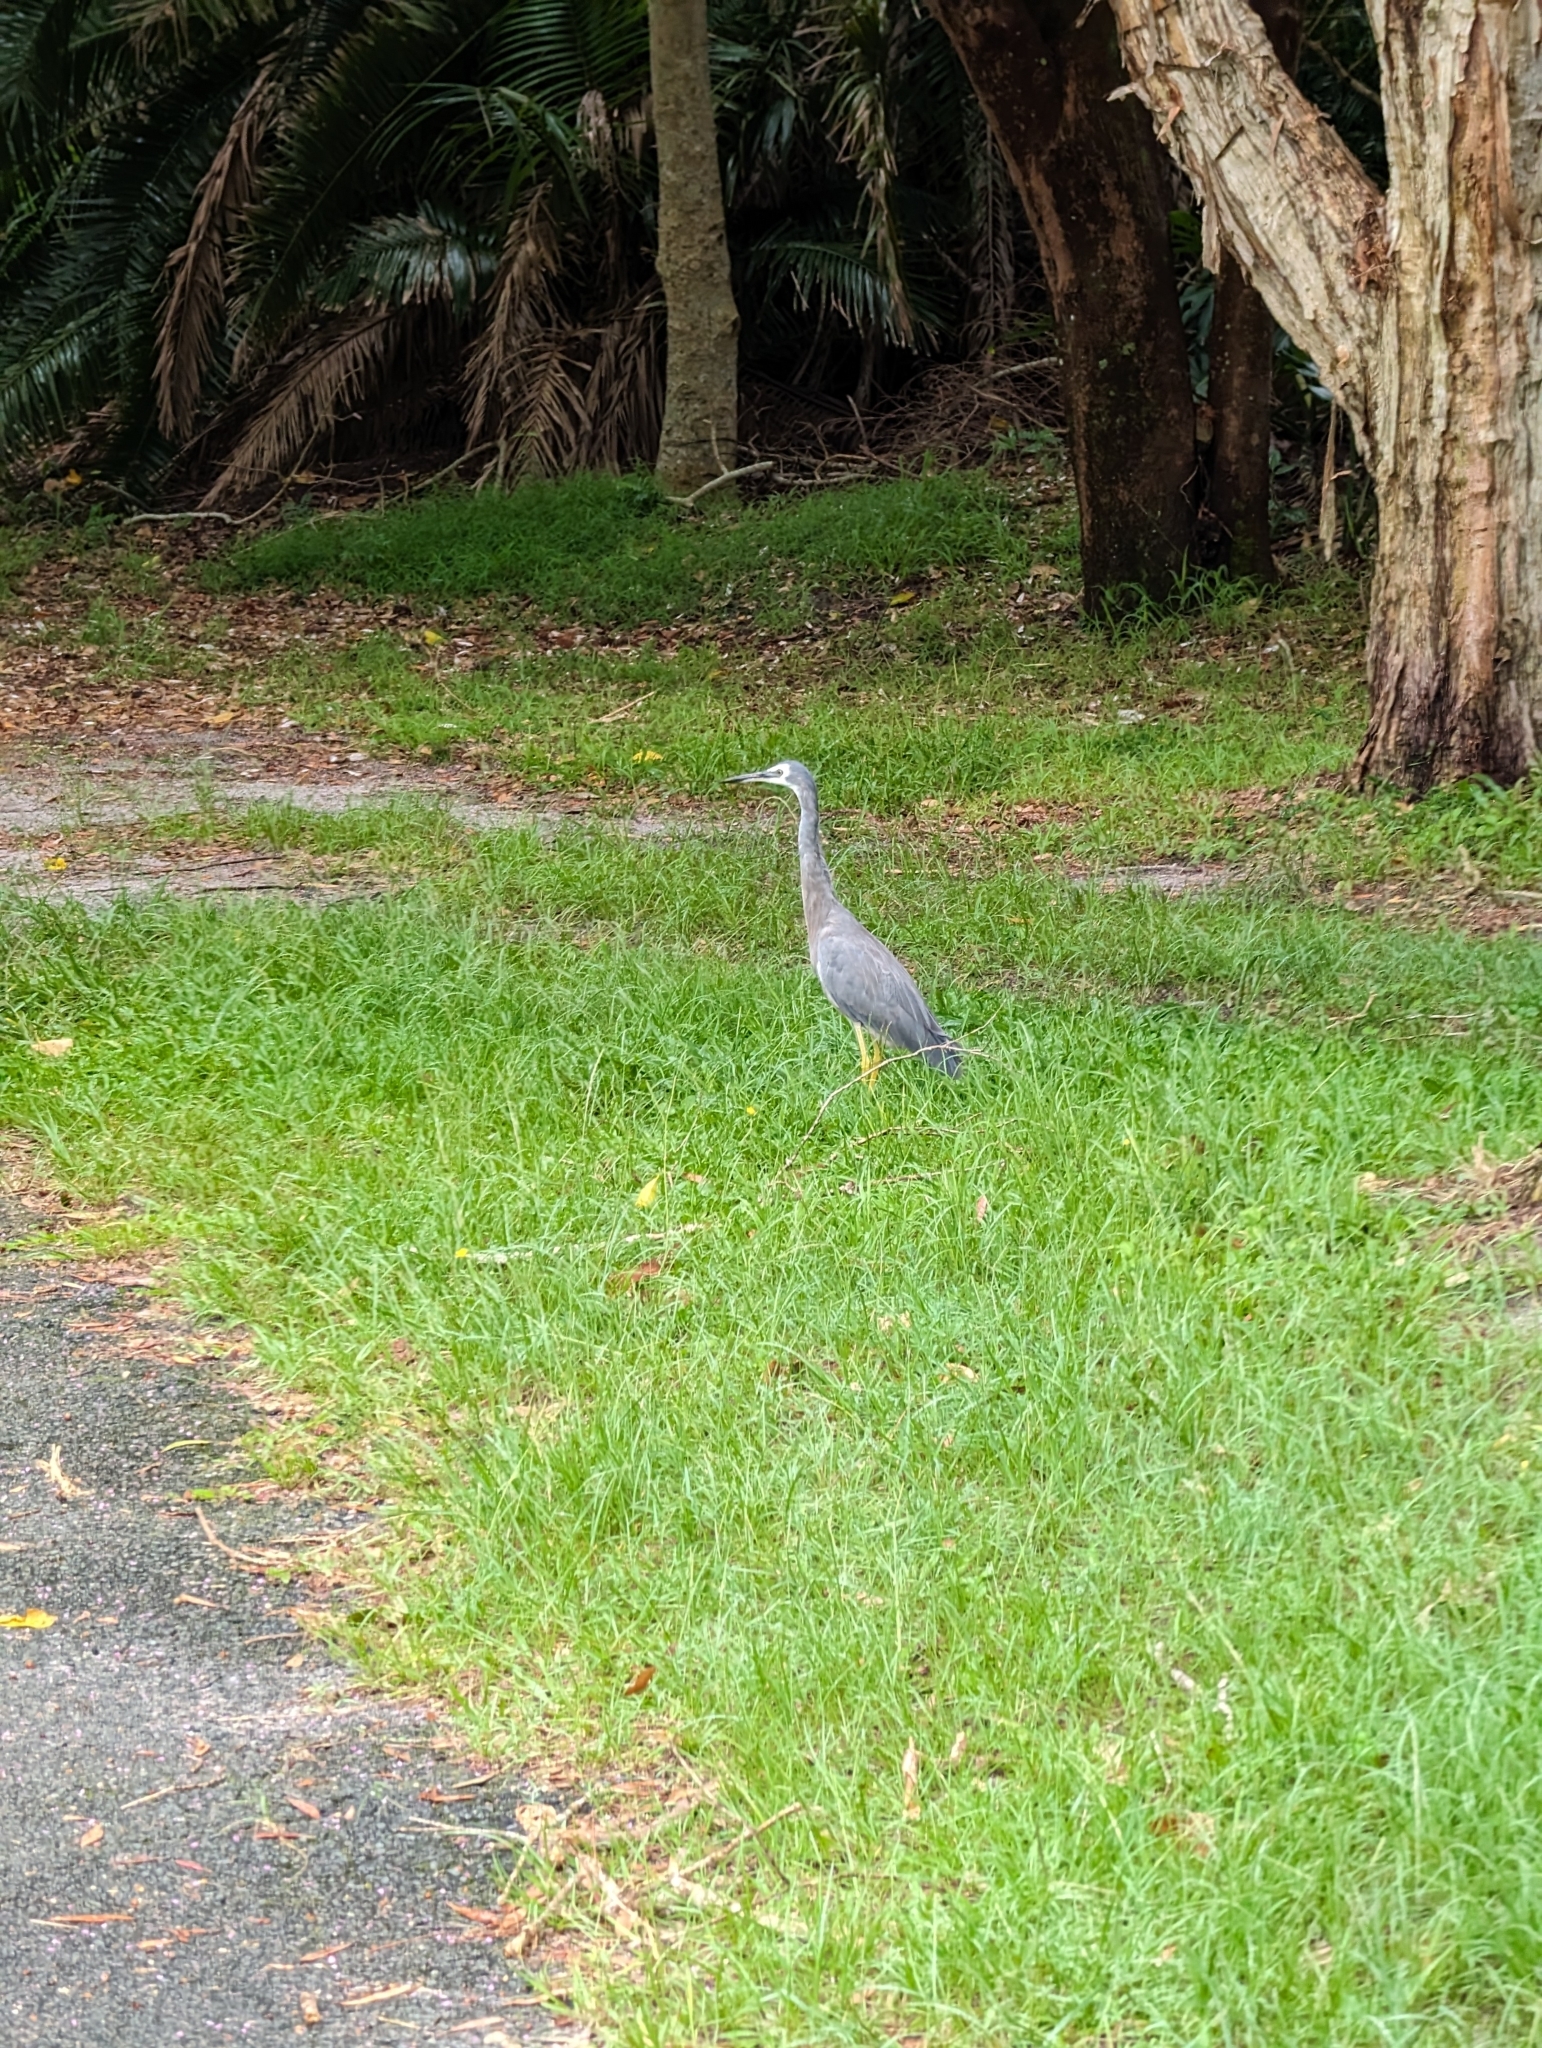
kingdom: Animalia
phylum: Chordata
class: Aves
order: Pelecaniformes
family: Ardeidae
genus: Egretta
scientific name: Egretta novaehollandiae
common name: White-faced heron
